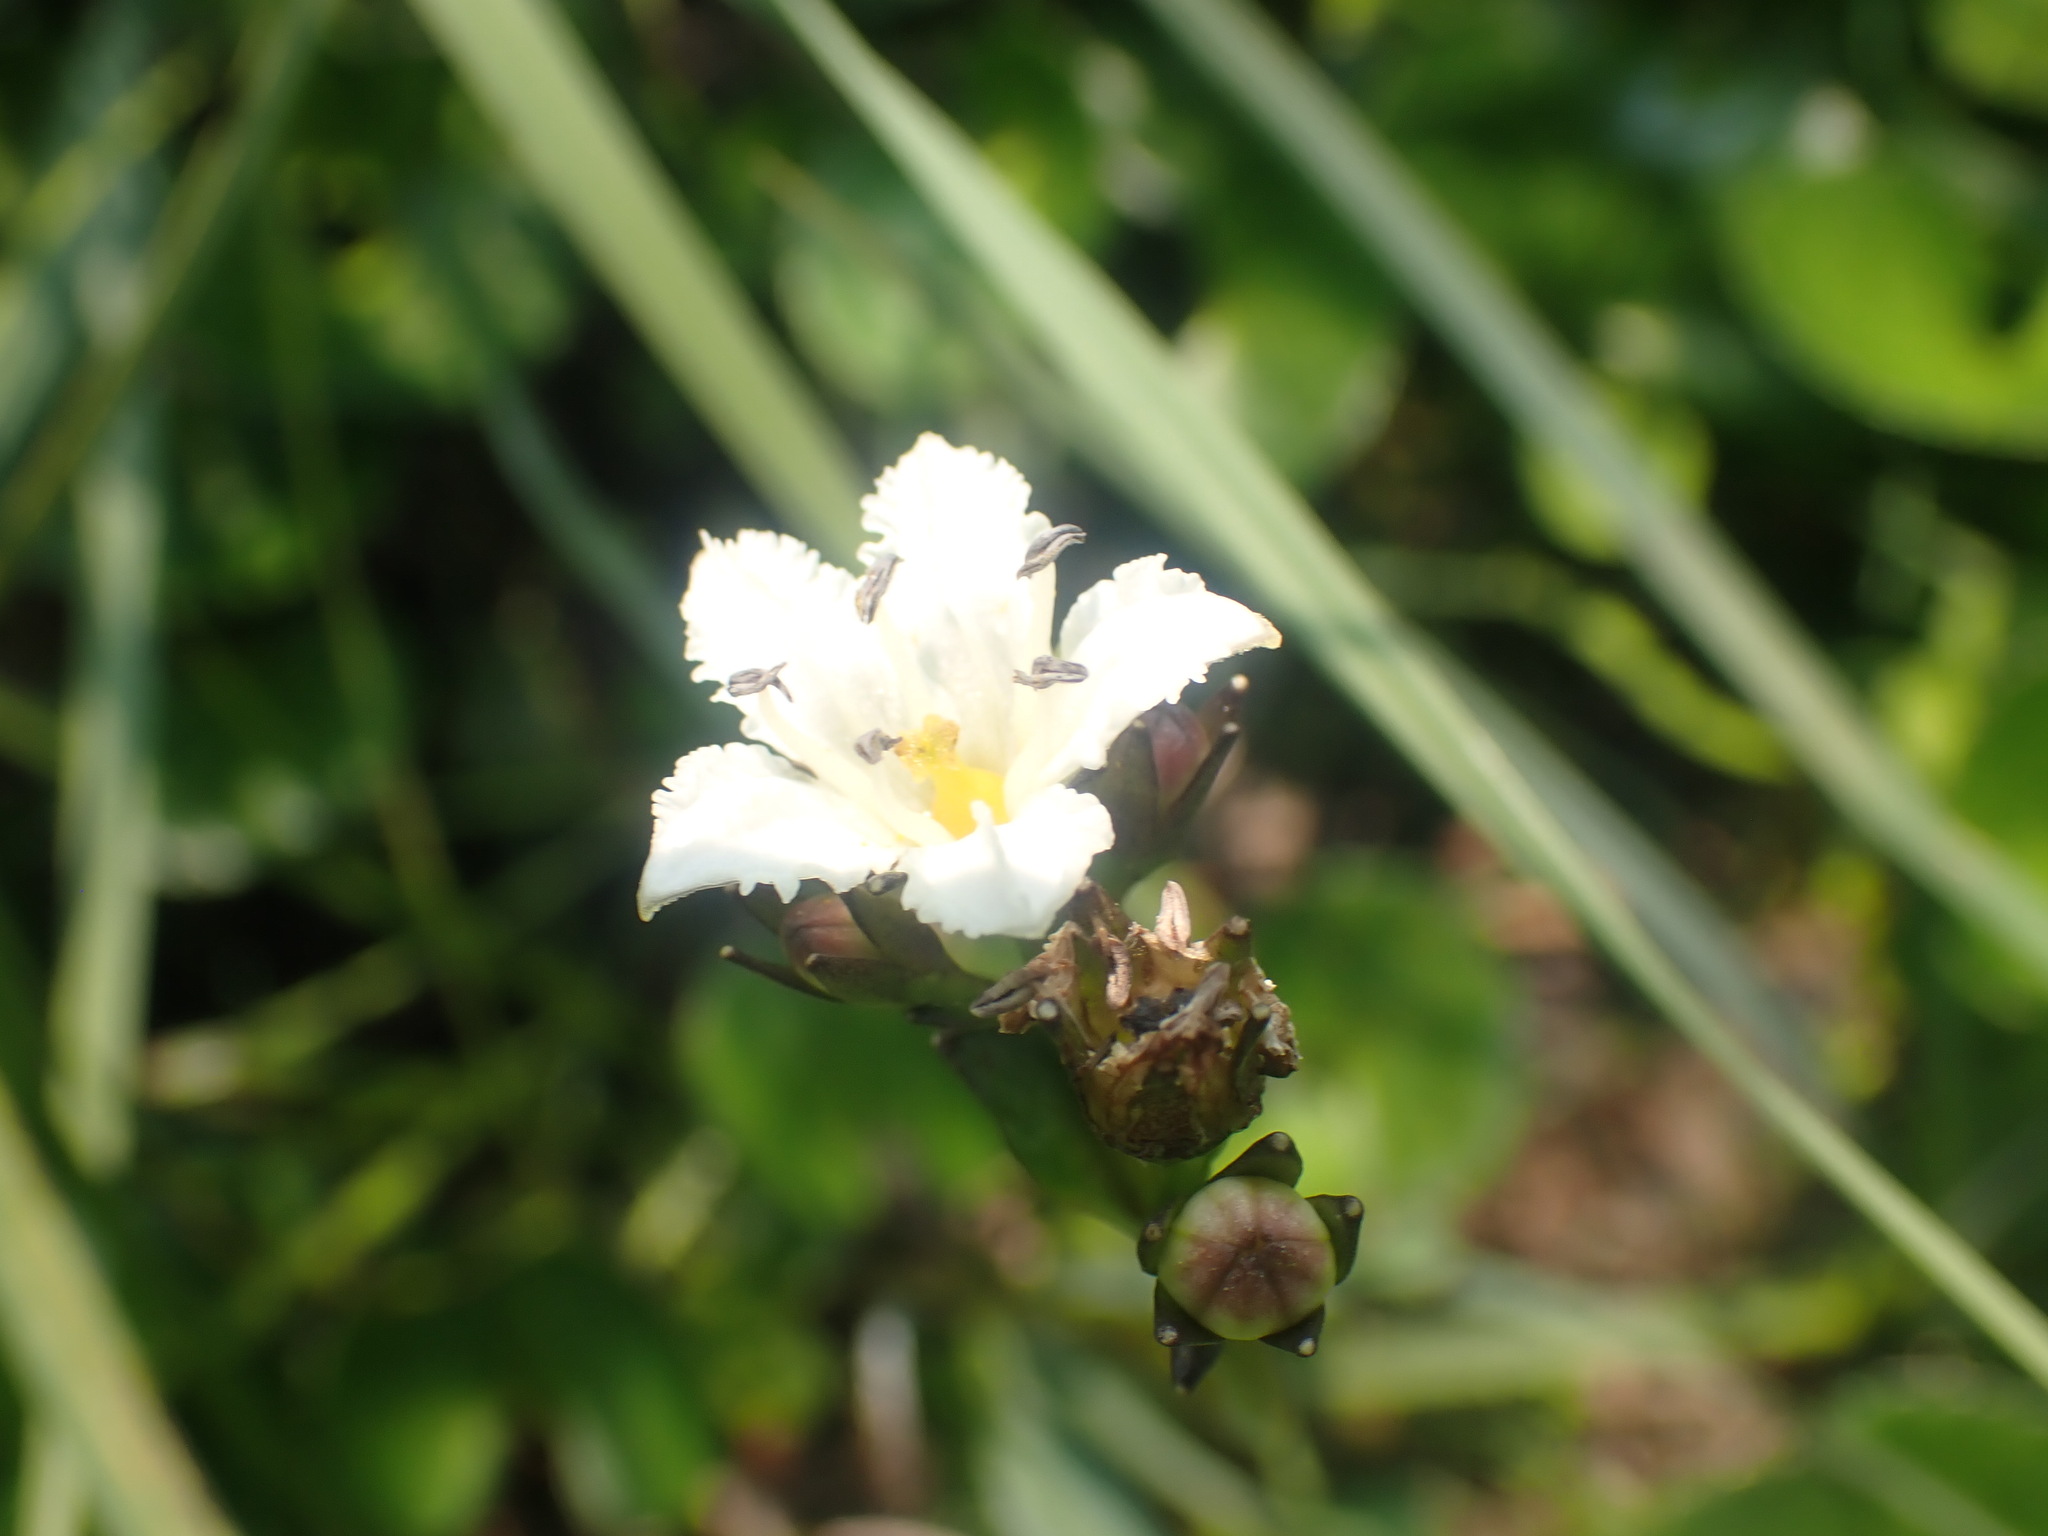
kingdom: Plantae
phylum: Tracheophyta
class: Magnoliopsida
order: Asterales
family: Menyanthaceae
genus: Nephrophyllidium
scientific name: Nephrophyllidium crista-galli
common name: Deer-cabbage
